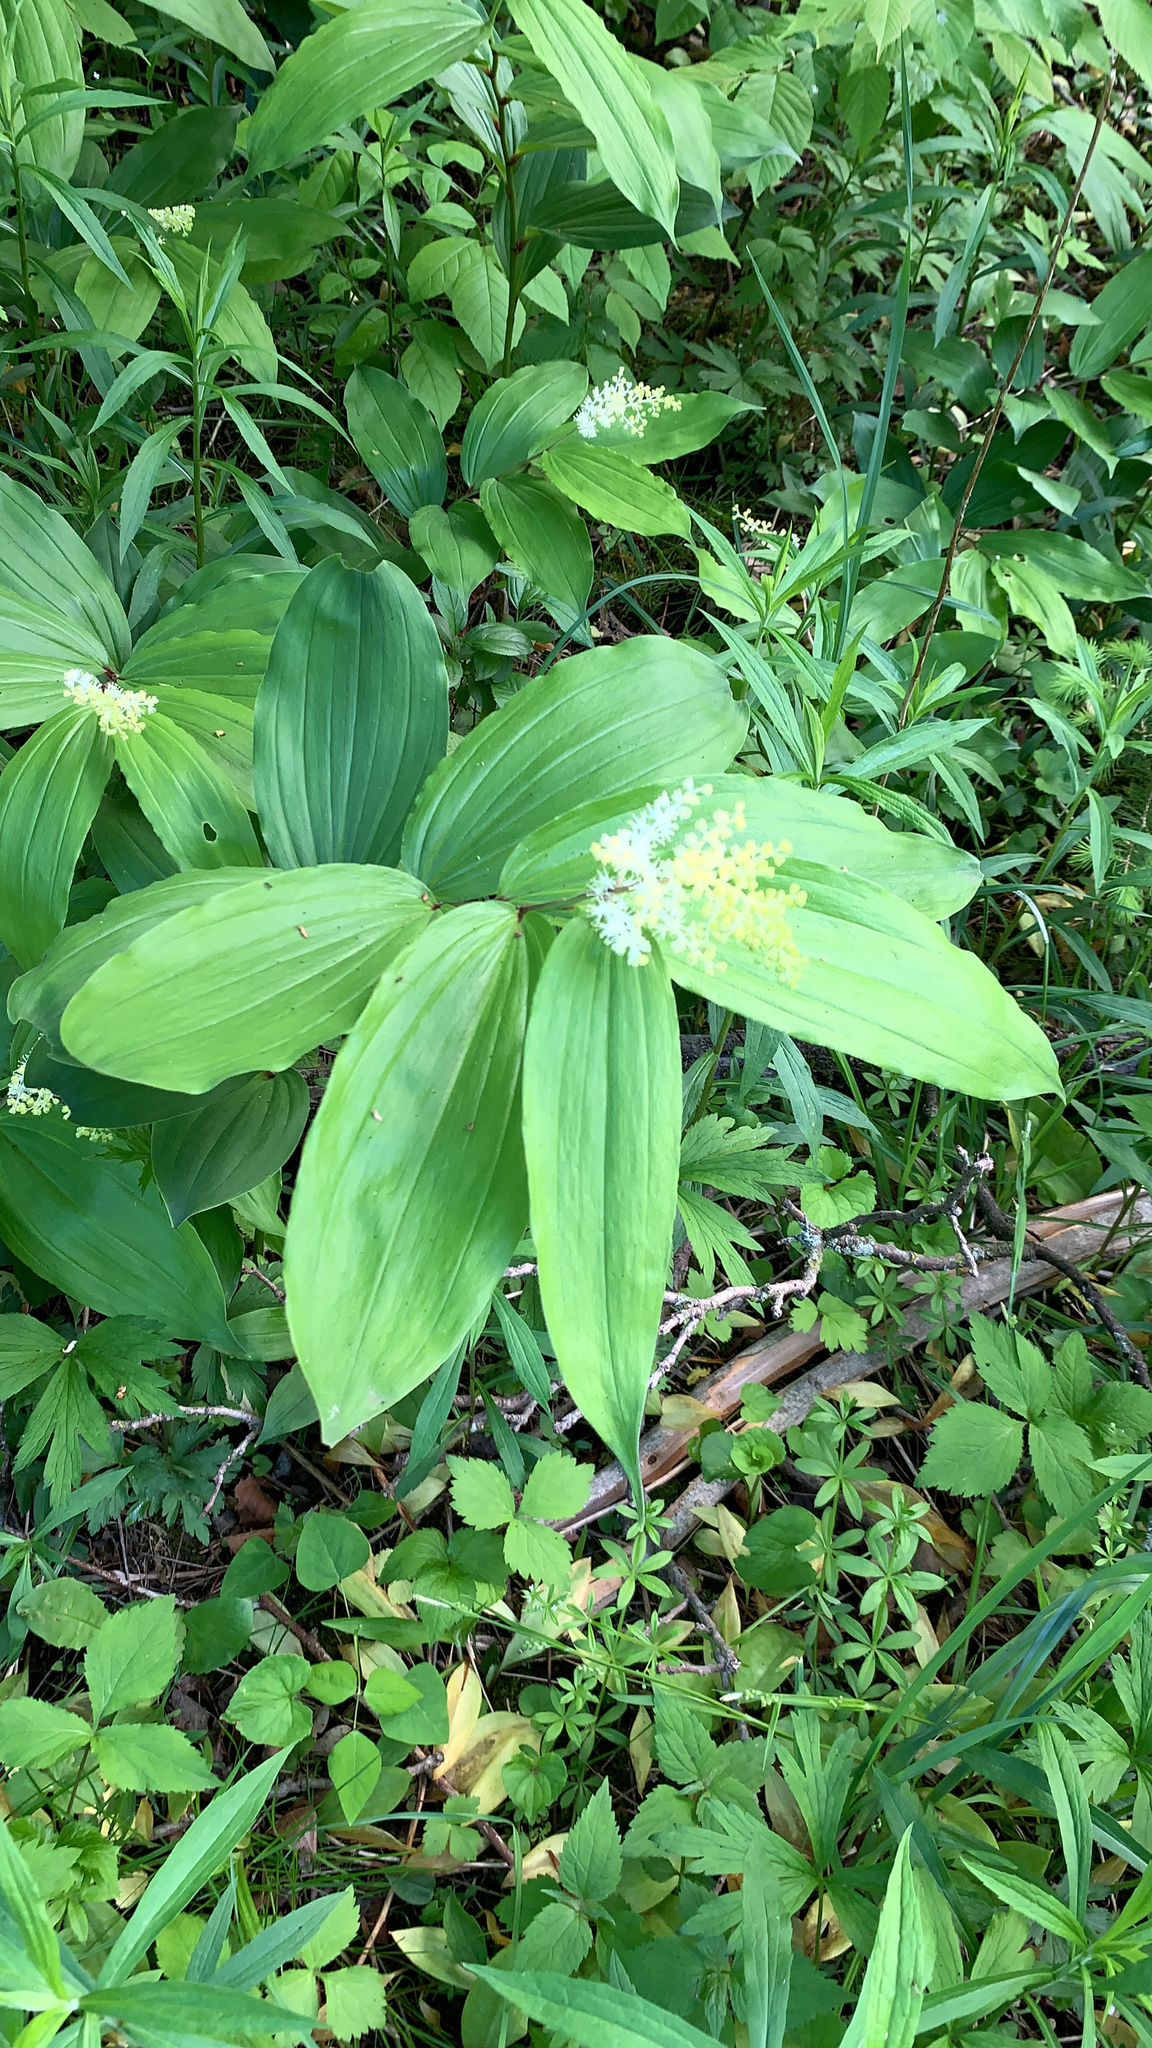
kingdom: Plantae
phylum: Tracheophyta
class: Liliopsida
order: Asparagales
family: Asparagaceae
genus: Maianthemum
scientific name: Maianthemum racemosum
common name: False spikenard
